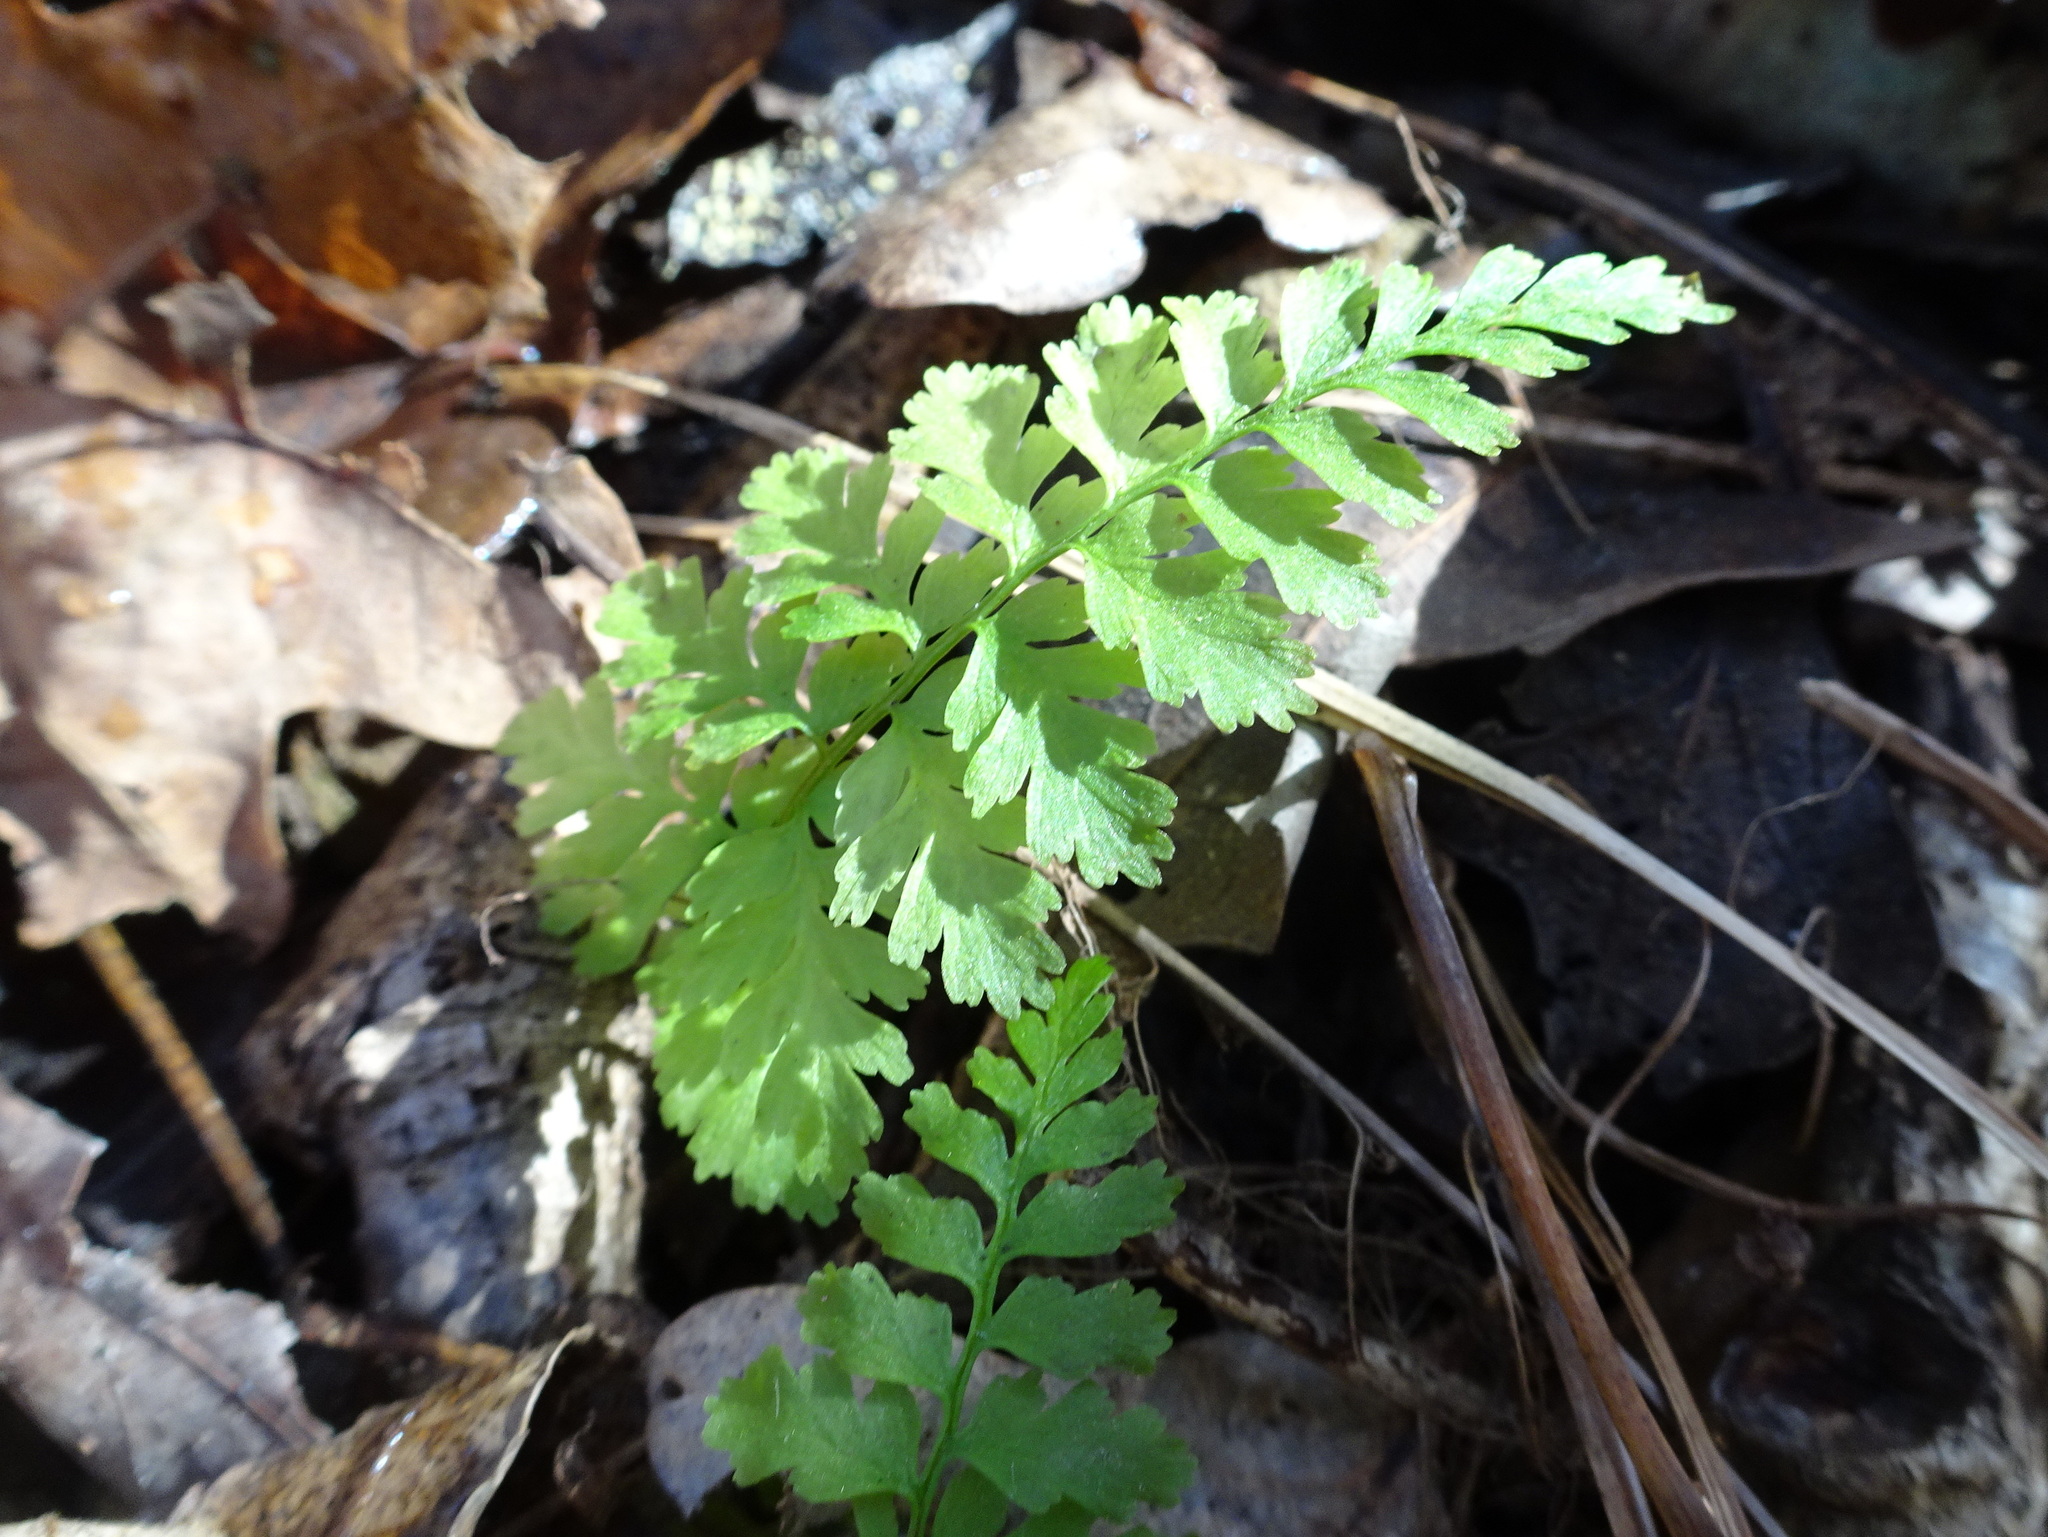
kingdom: Plantae
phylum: Tracheophyta
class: Polypodiopsida
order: Polypodiales
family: Cystopteridaceae
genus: Cystopteris
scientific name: Cystopteris protrusa
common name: Lowland brittle fern
